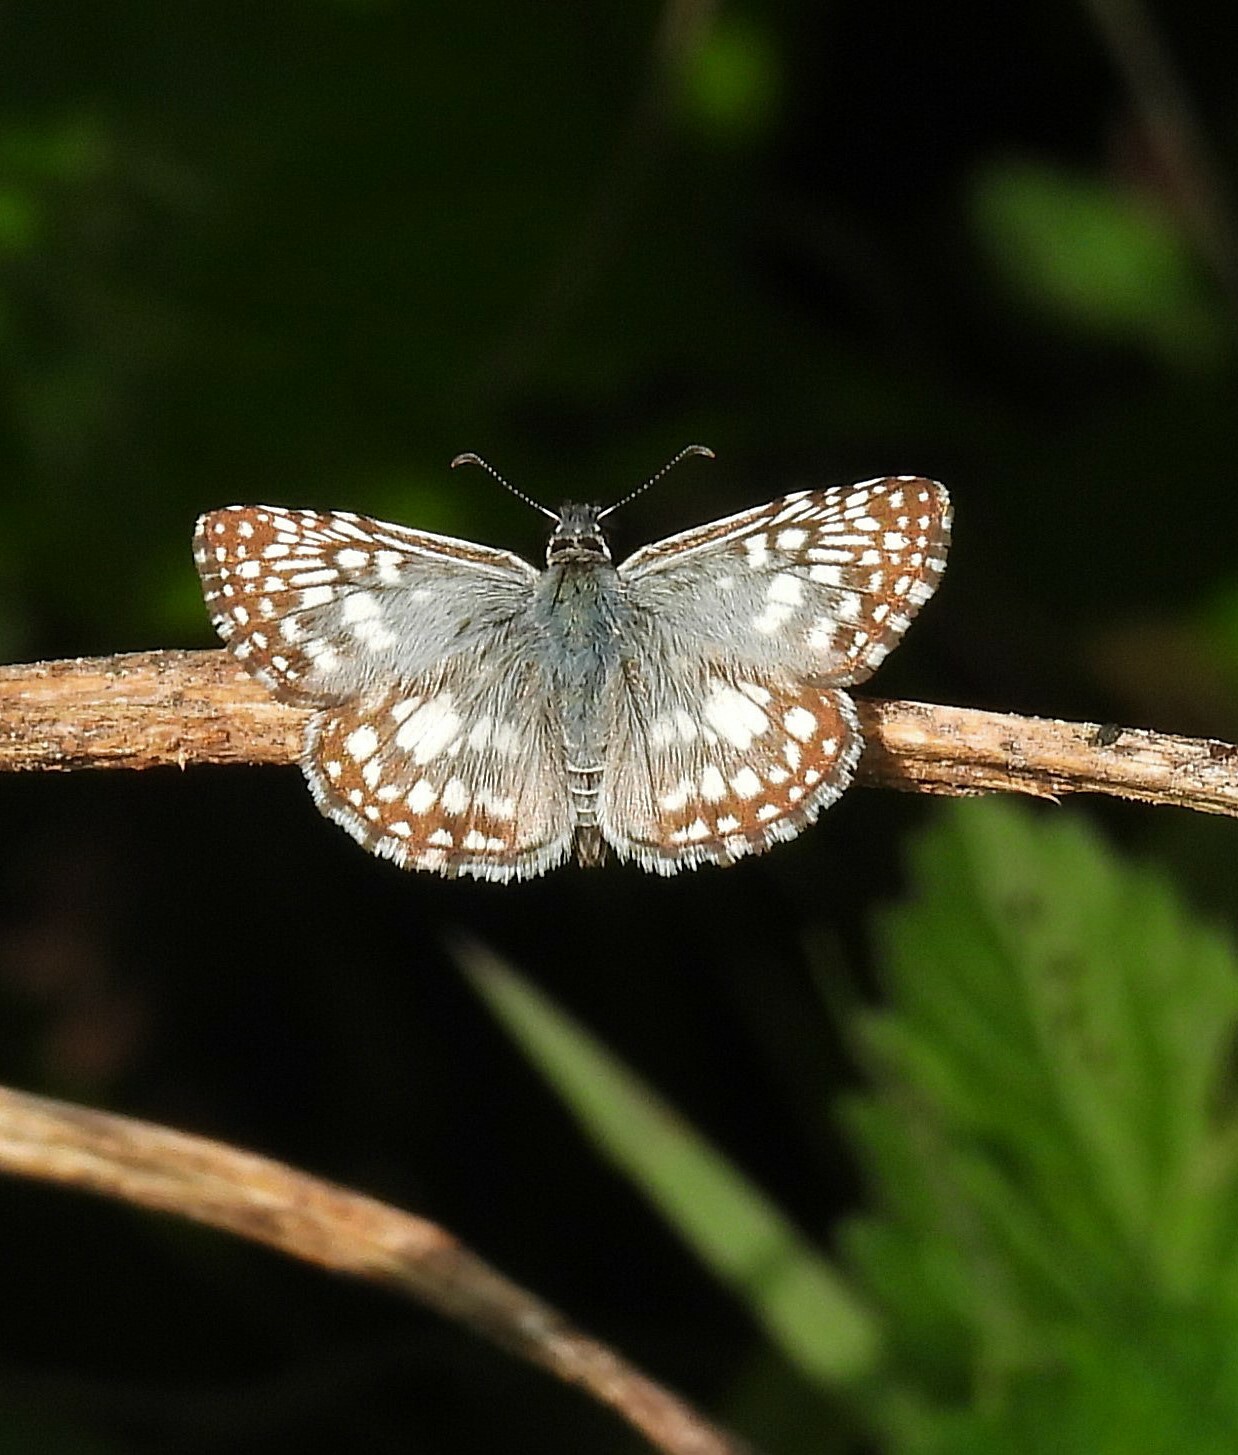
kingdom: Animalia
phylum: Arthropoda
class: Insecta
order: Lepidoptera
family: Hesperiidae
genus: Pyrgus
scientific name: Pyrgus oileus
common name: Tropical checkered-skipper
